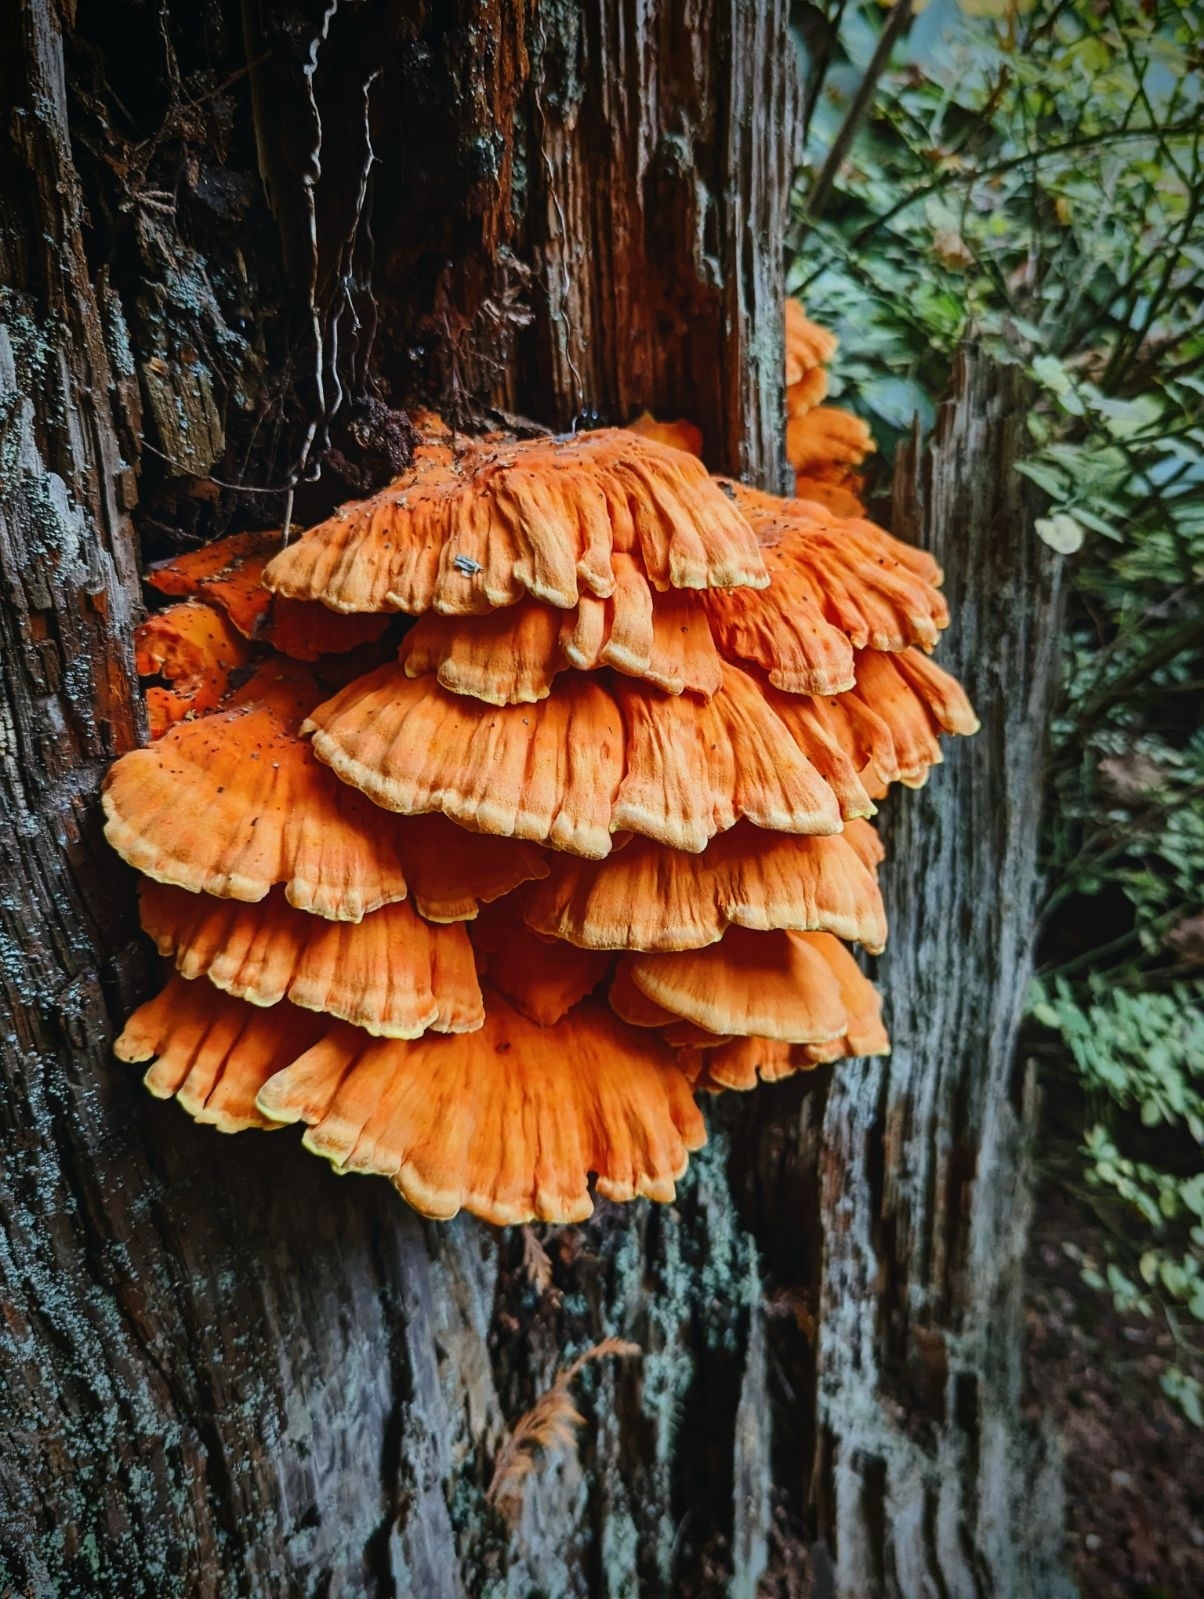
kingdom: Fungi
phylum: Basidiomycota
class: Agaricomycetes
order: Polyporales
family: Laetiporaceae
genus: Laetiporus
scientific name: Laetiporus conifericola
